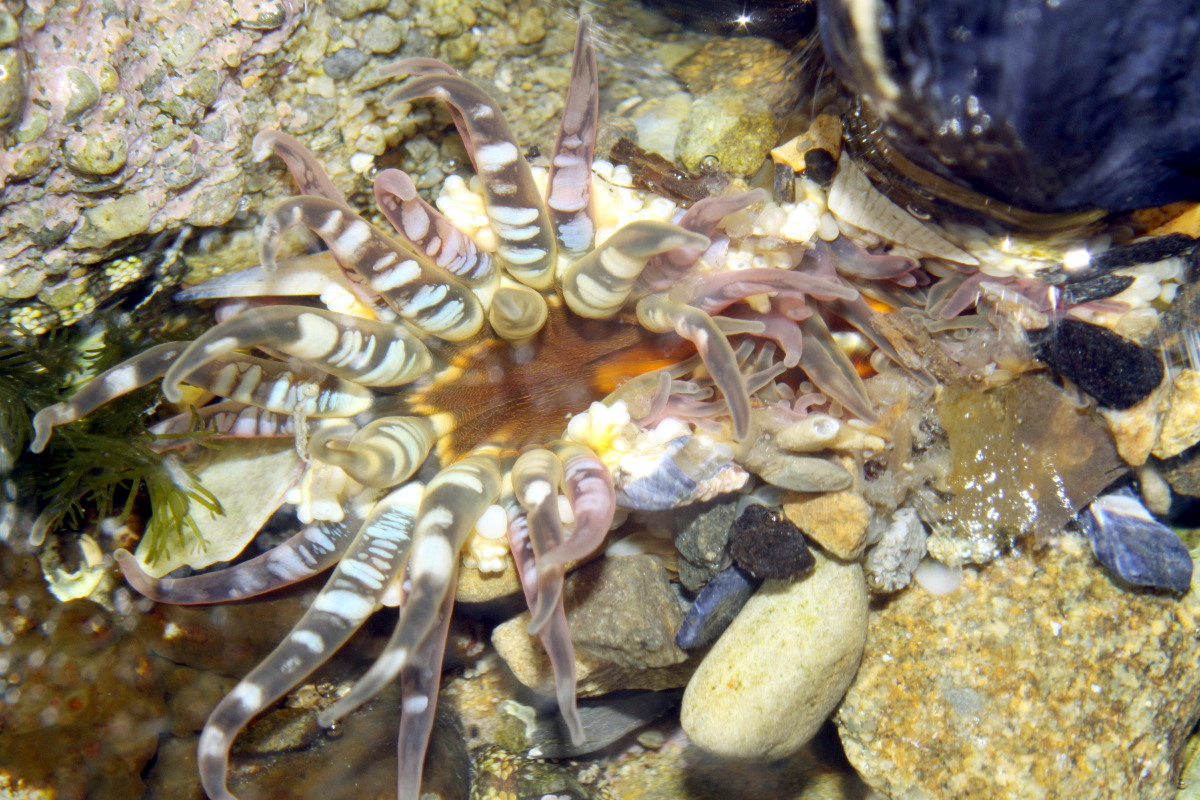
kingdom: Animalia
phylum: Cnidaria
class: Anthozoa
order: Actiniaria
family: Actiniidae
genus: Oulactis
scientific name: Oulactis muscosa
